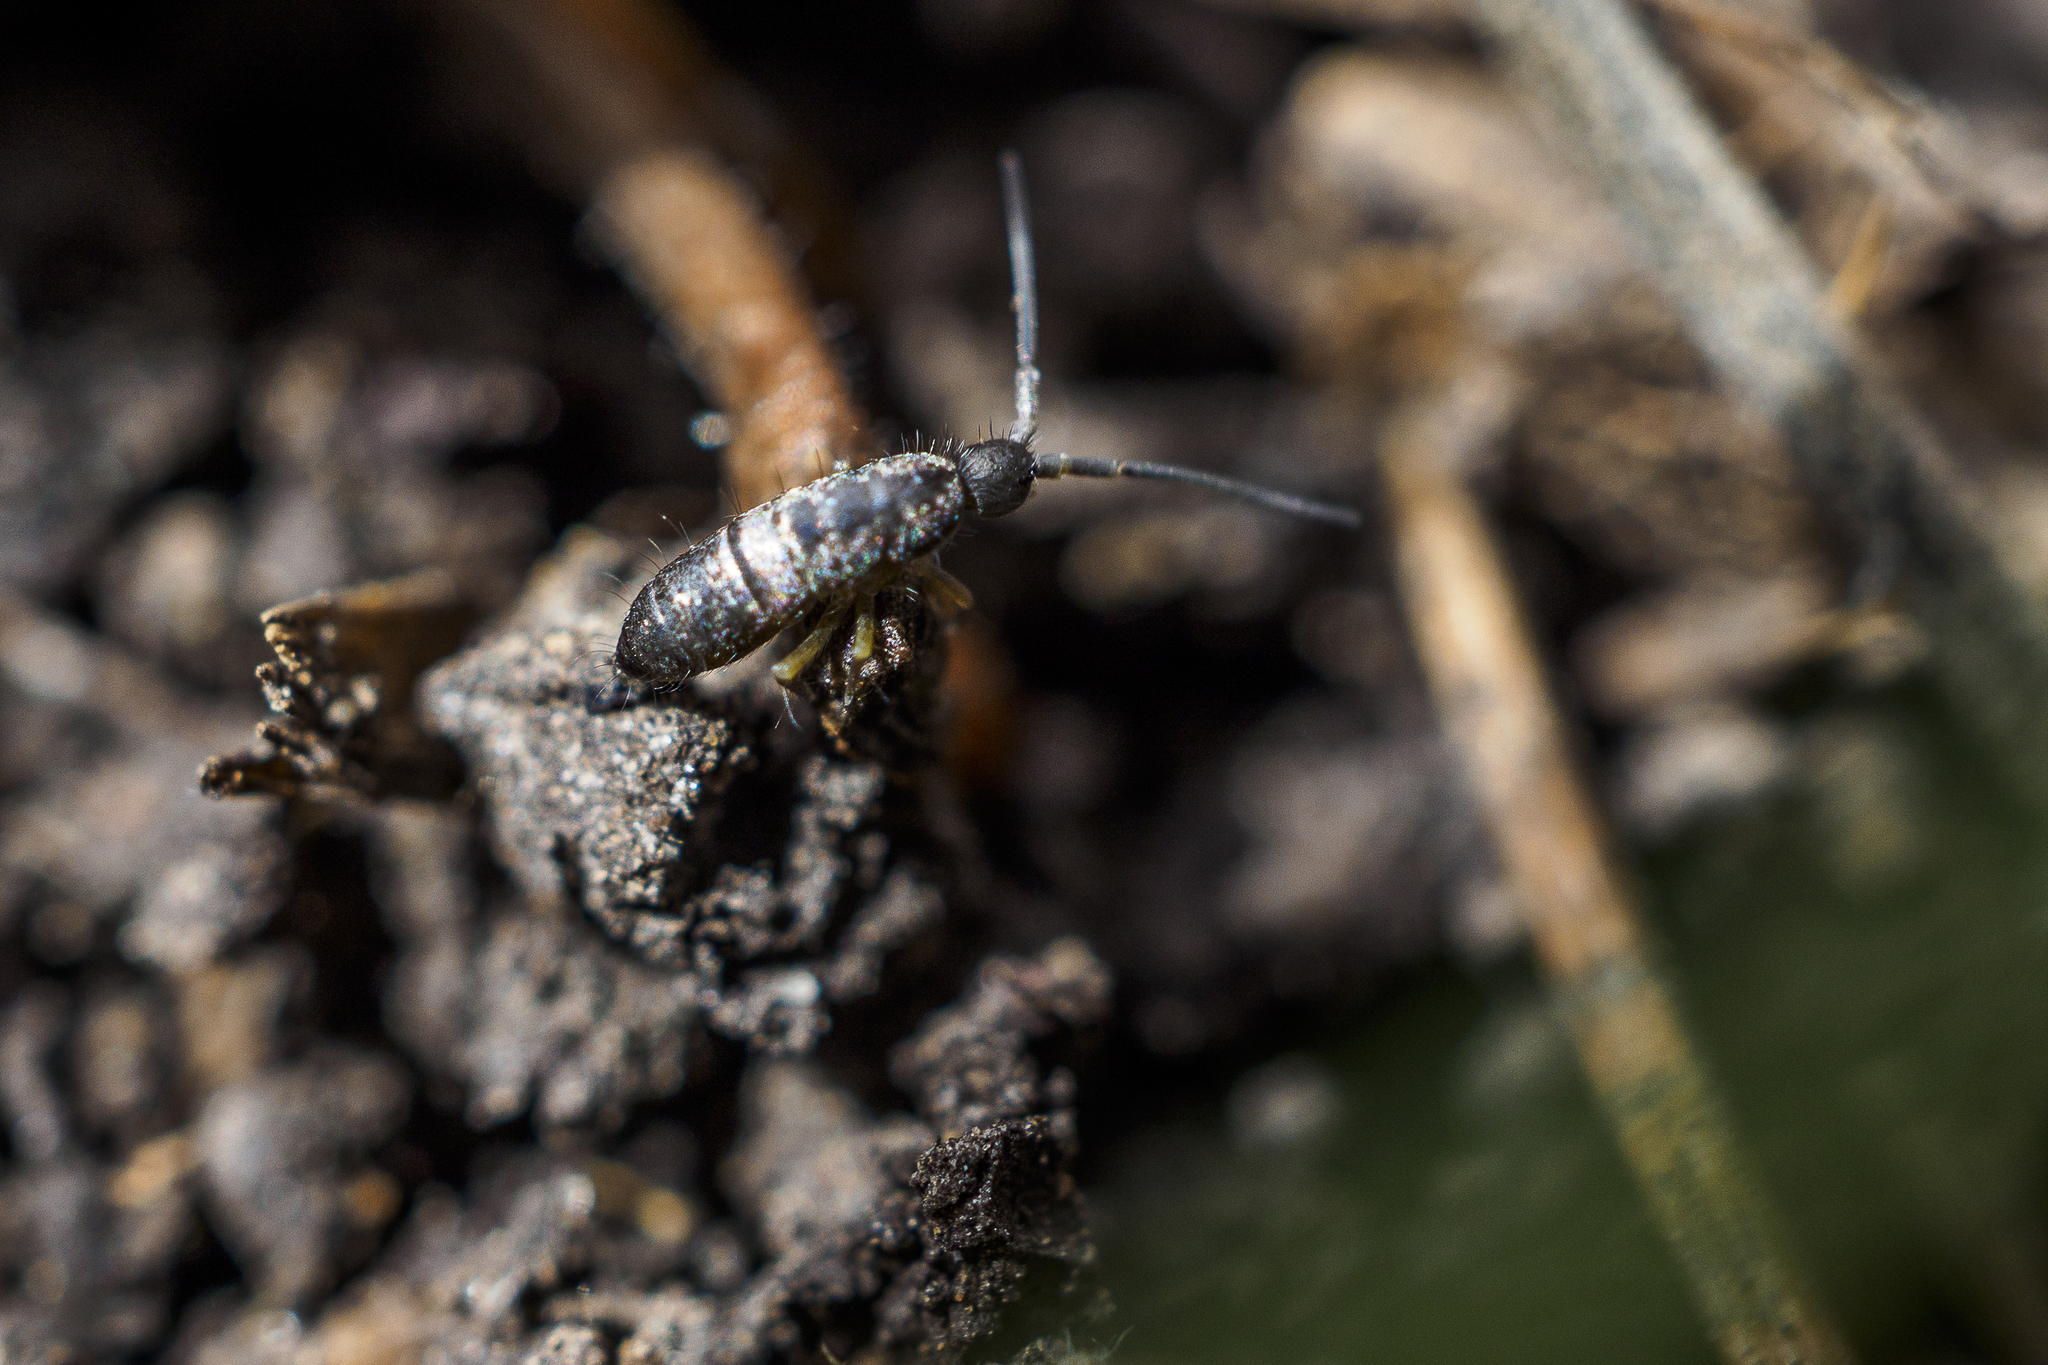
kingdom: Animalia
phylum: Arthropoda
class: Collembola
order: Entomobryomorpha
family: Tomoceridae
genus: Tomocerus
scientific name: Tomocerus vulgaris
